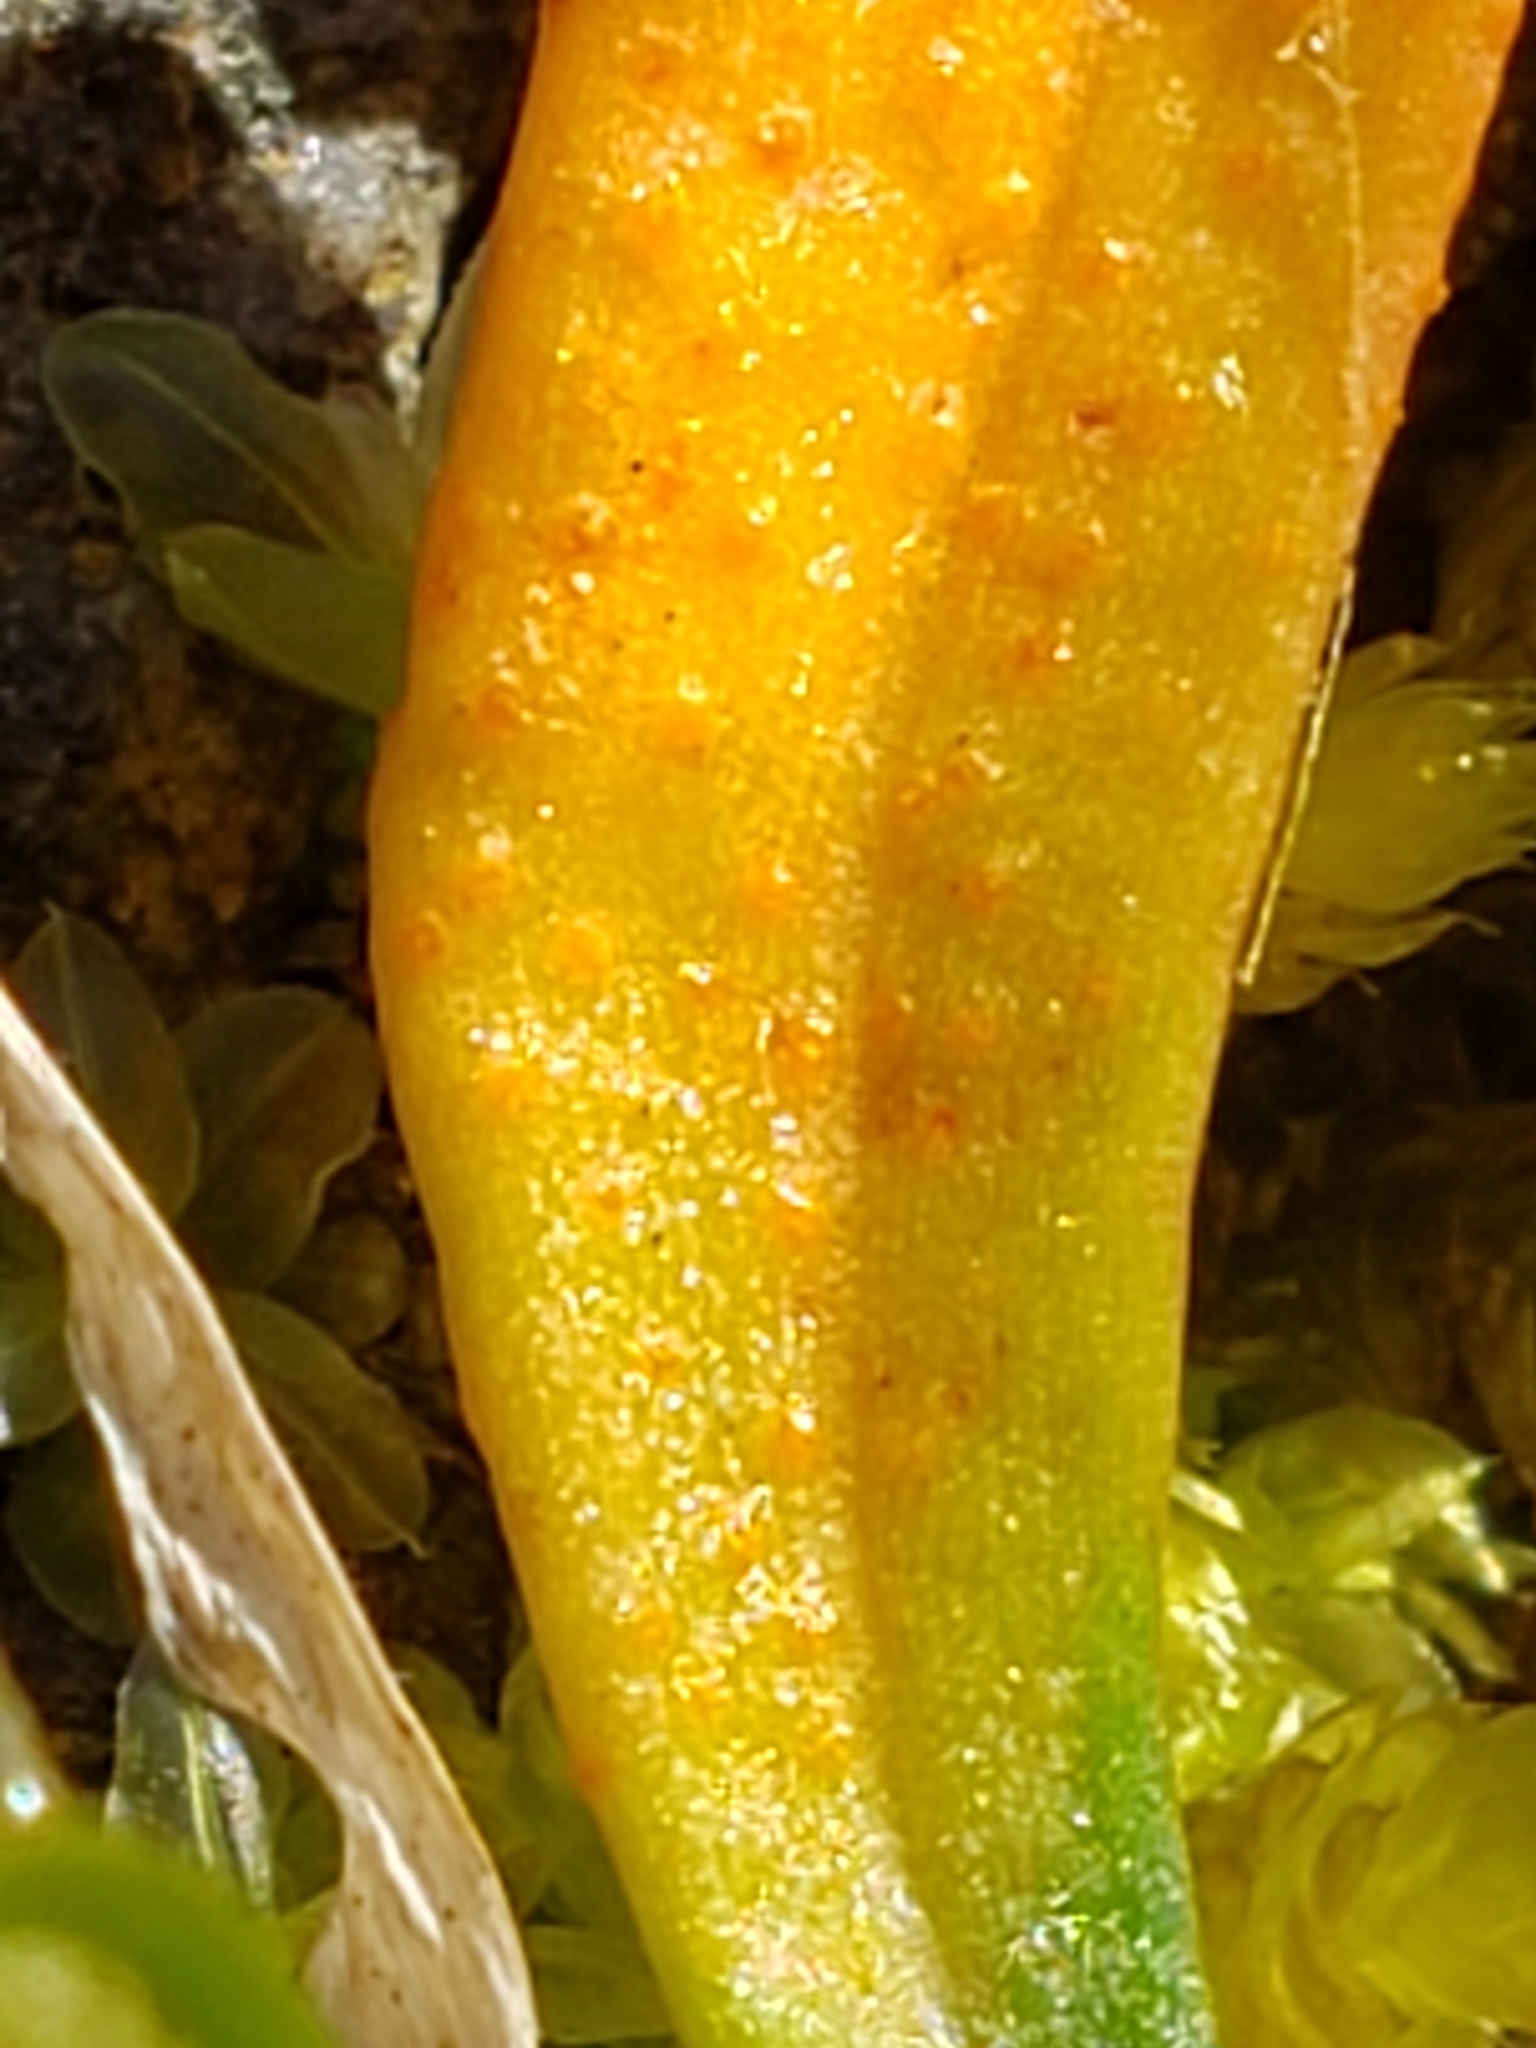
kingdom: Fungi
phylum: Basidiomycota
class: Pucciniomycetes
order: Pucciniales
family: Pucciniaceae
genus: Puccinia
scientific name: Puccinia mariae-wilsoniae
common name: Spring beauty rust
